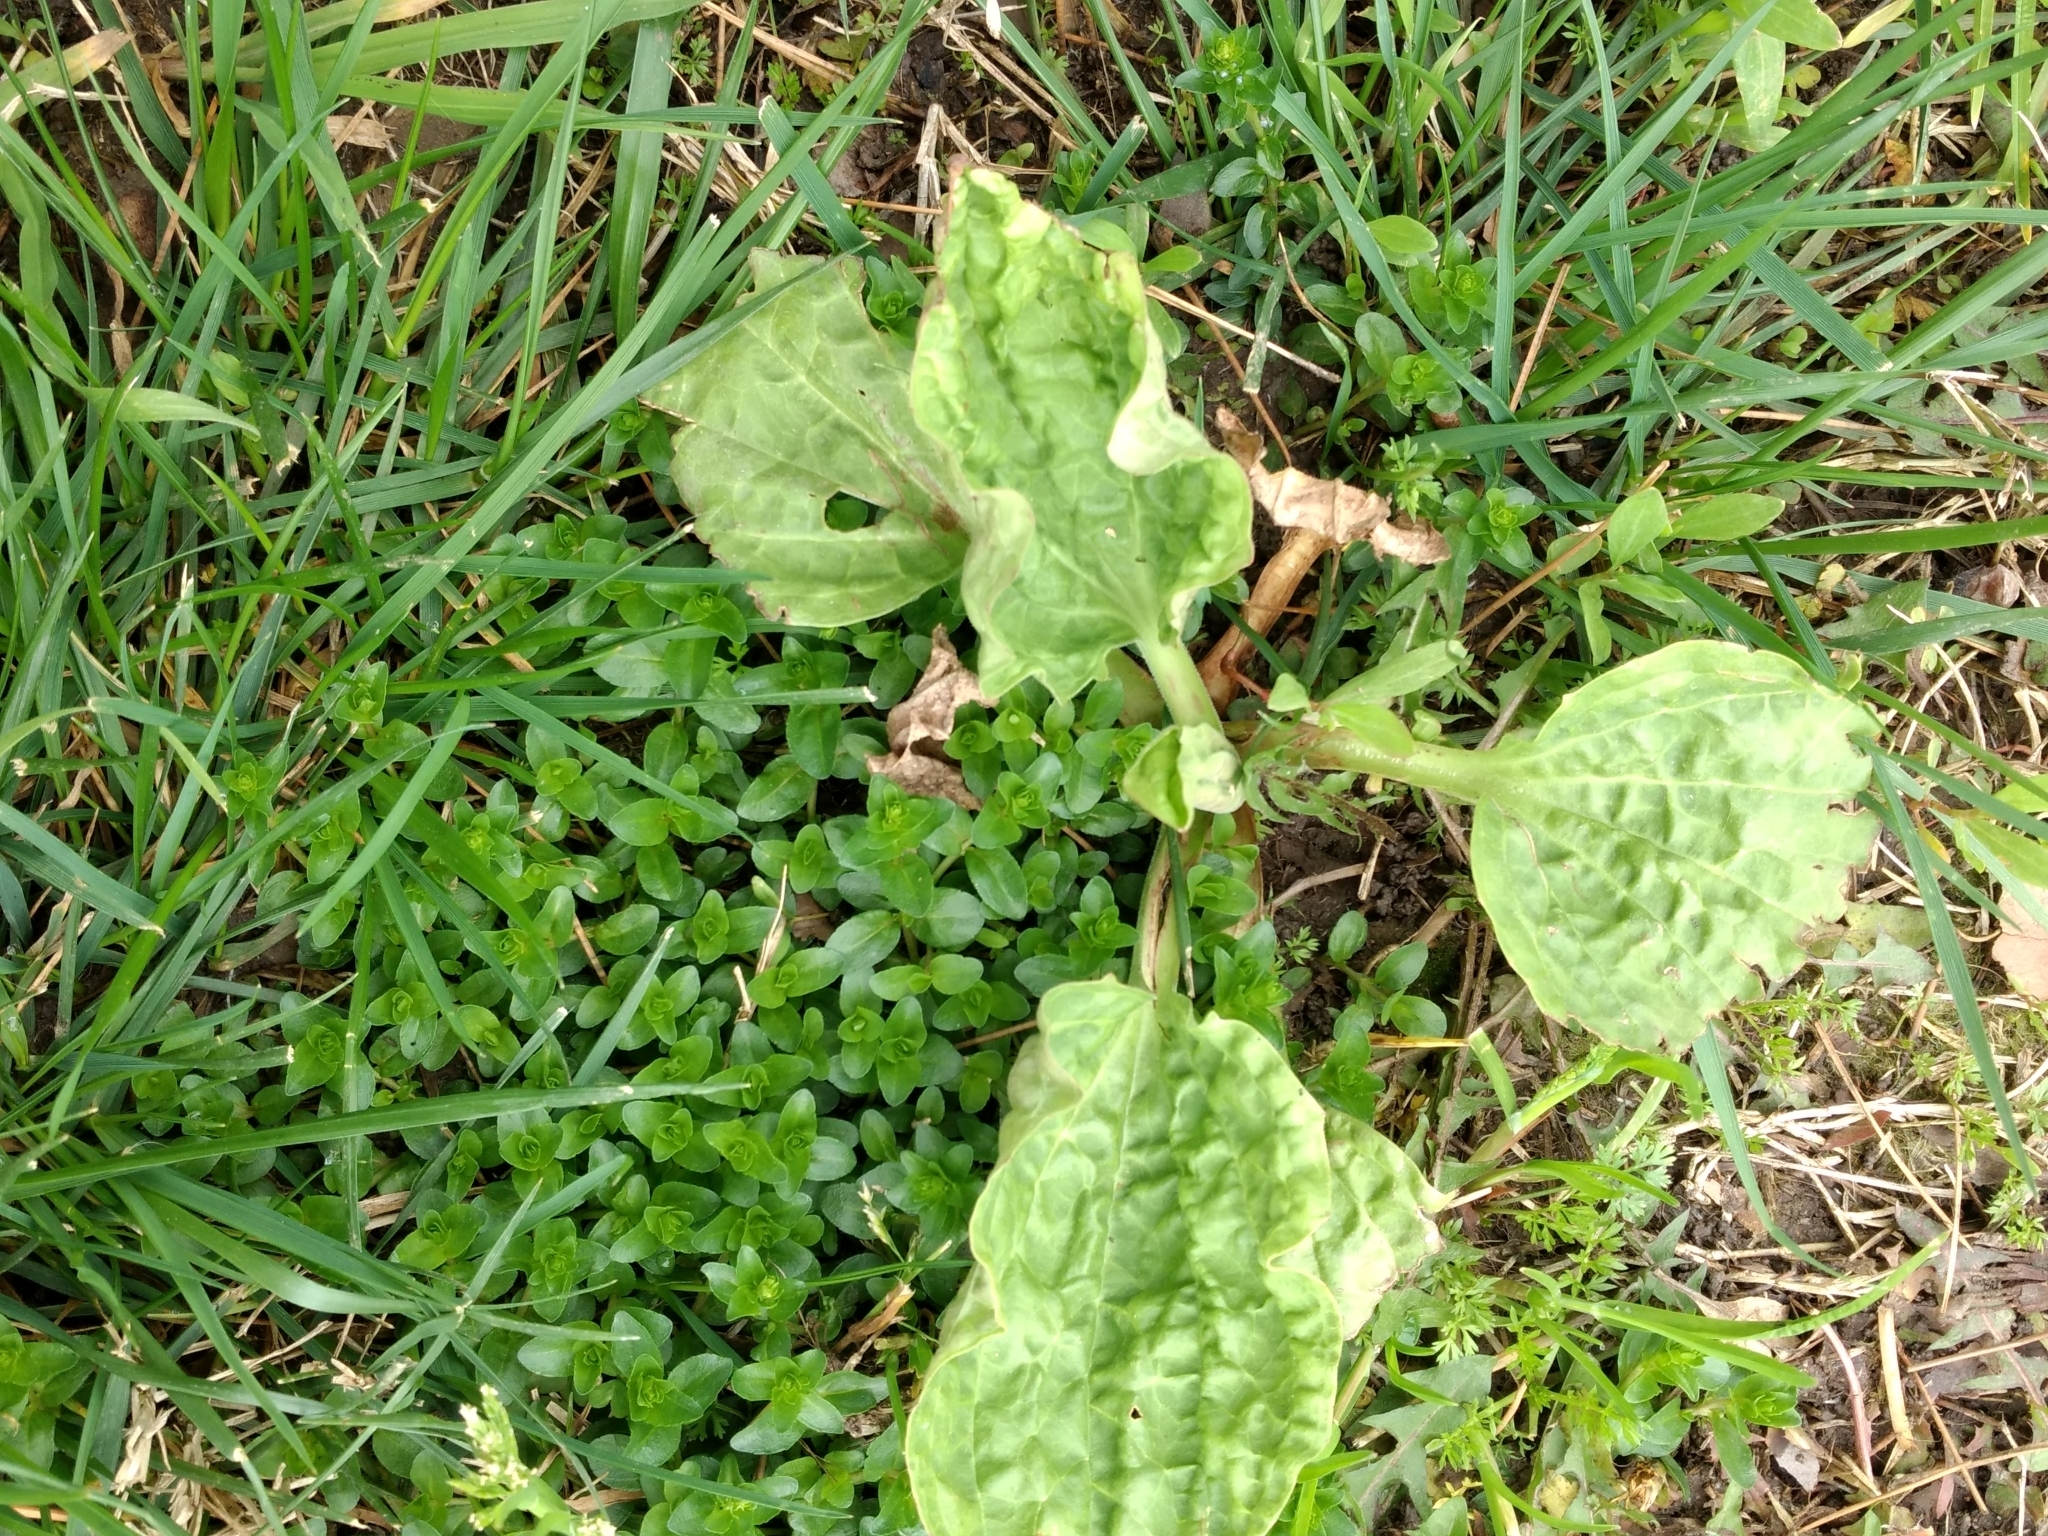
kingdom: Plantae
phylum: Tracheophyta
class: Magnoliopsida
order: Lamiales
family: Plantaginaceae
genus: Plantago
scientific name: Plantago major
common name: Common plantain
